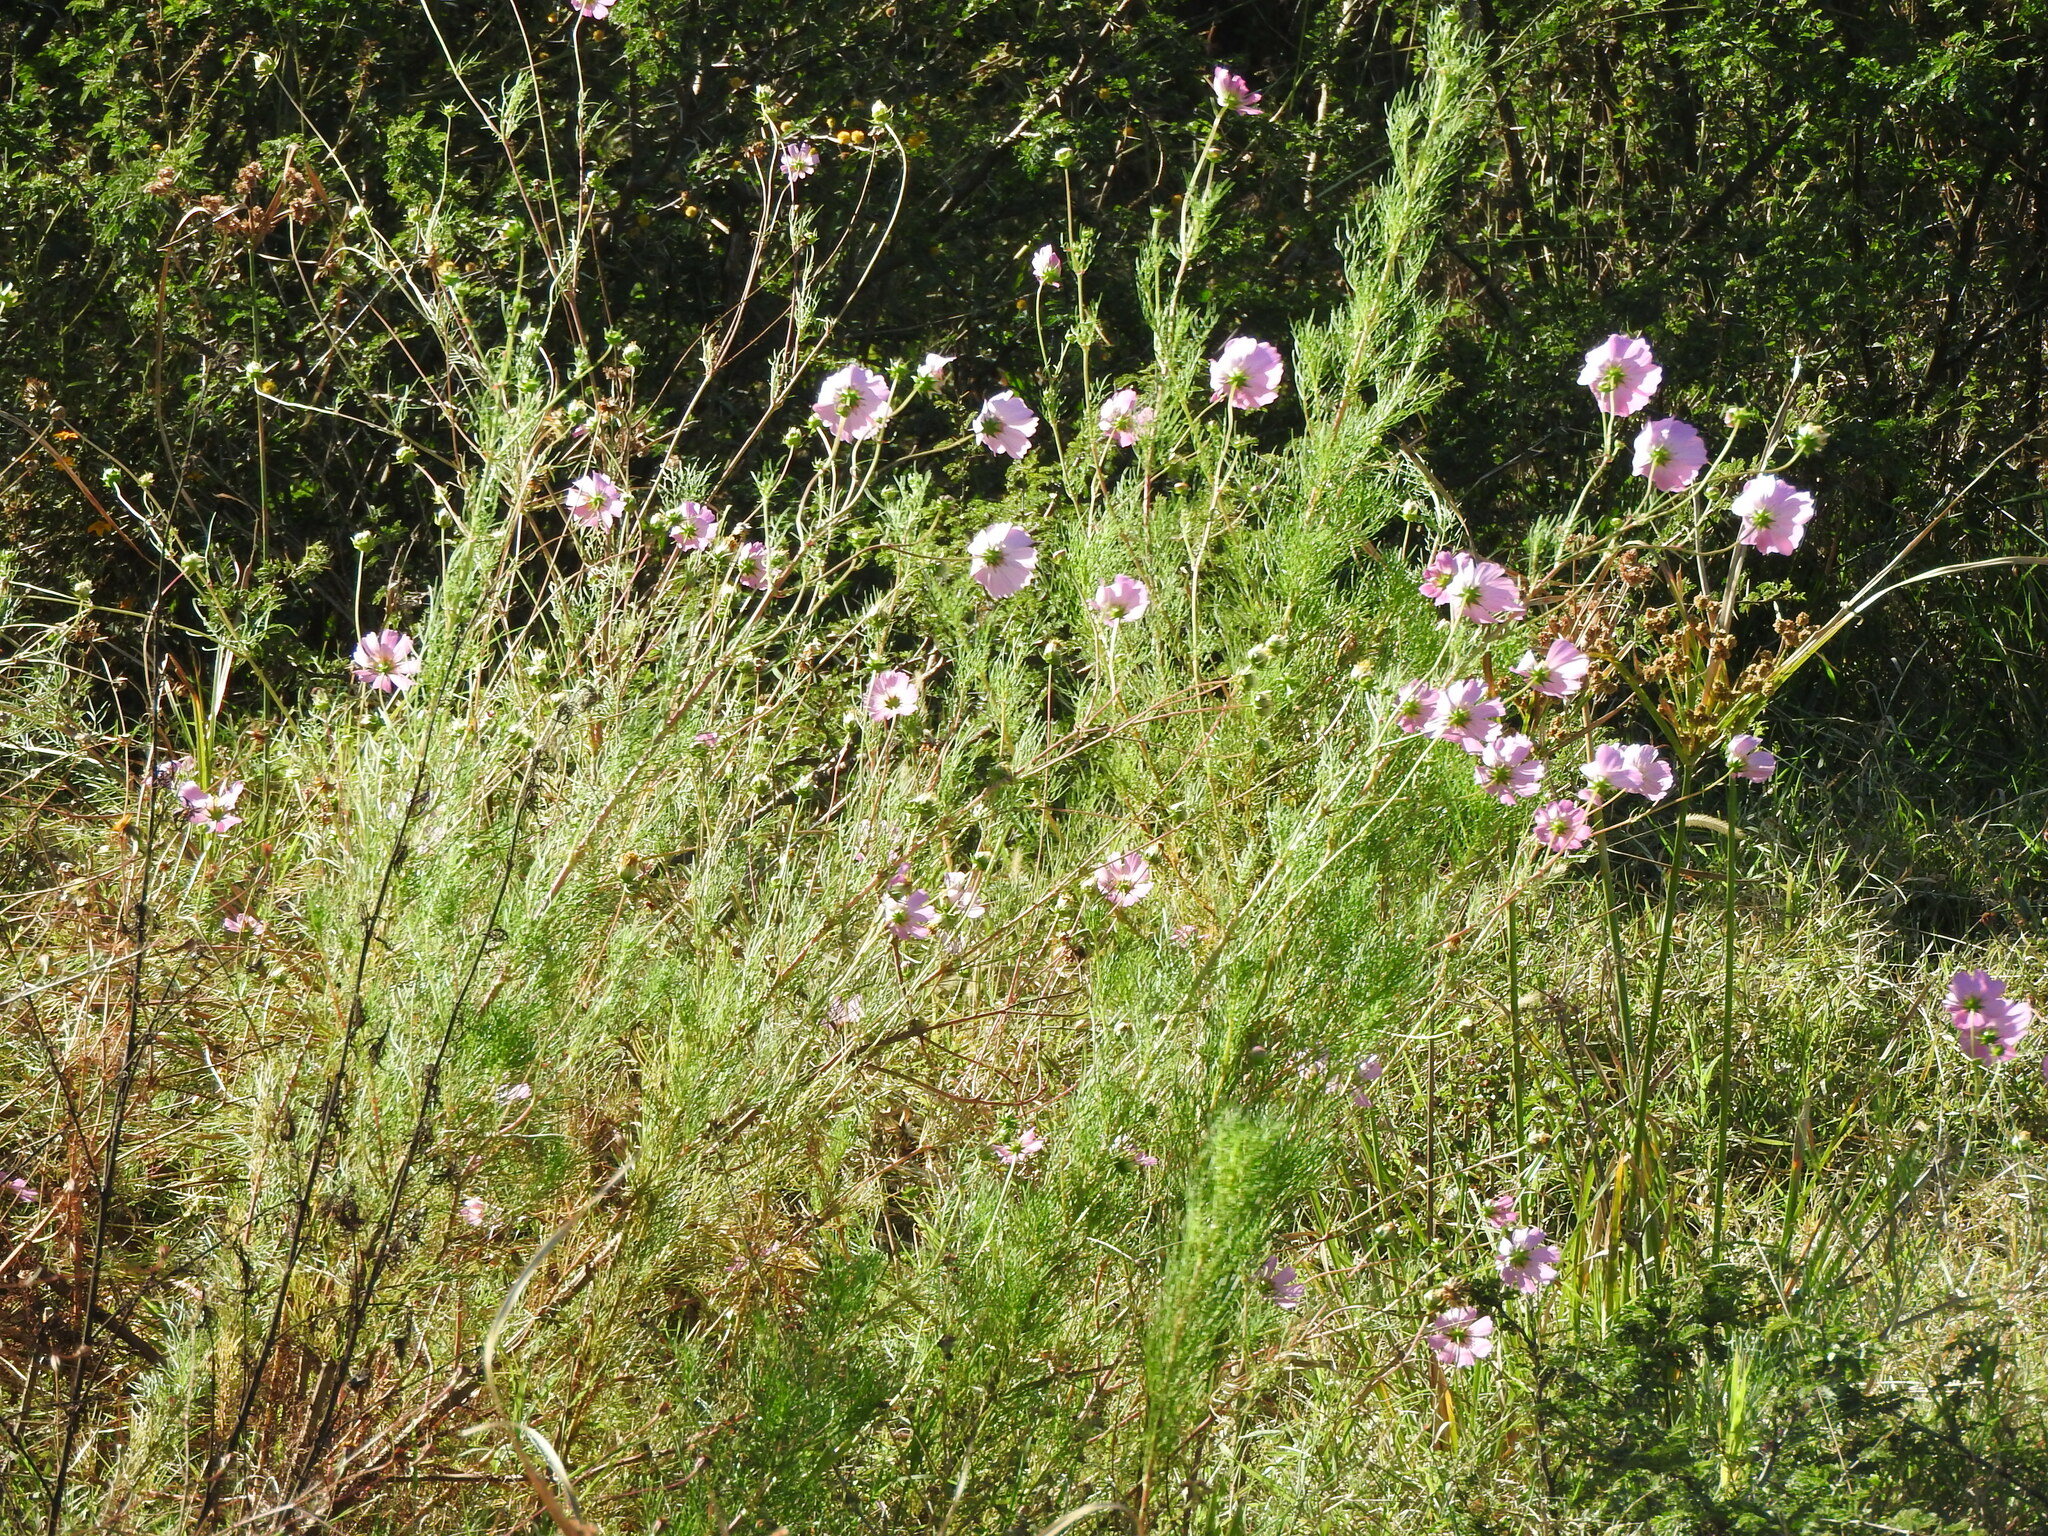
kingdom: Plantae
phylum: Tracheophyta
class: Magnoliopsida
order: Asterales
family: Asteraceae
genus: Cosmos
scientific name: Cosmos bipinnatus
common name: Garden cosmos
